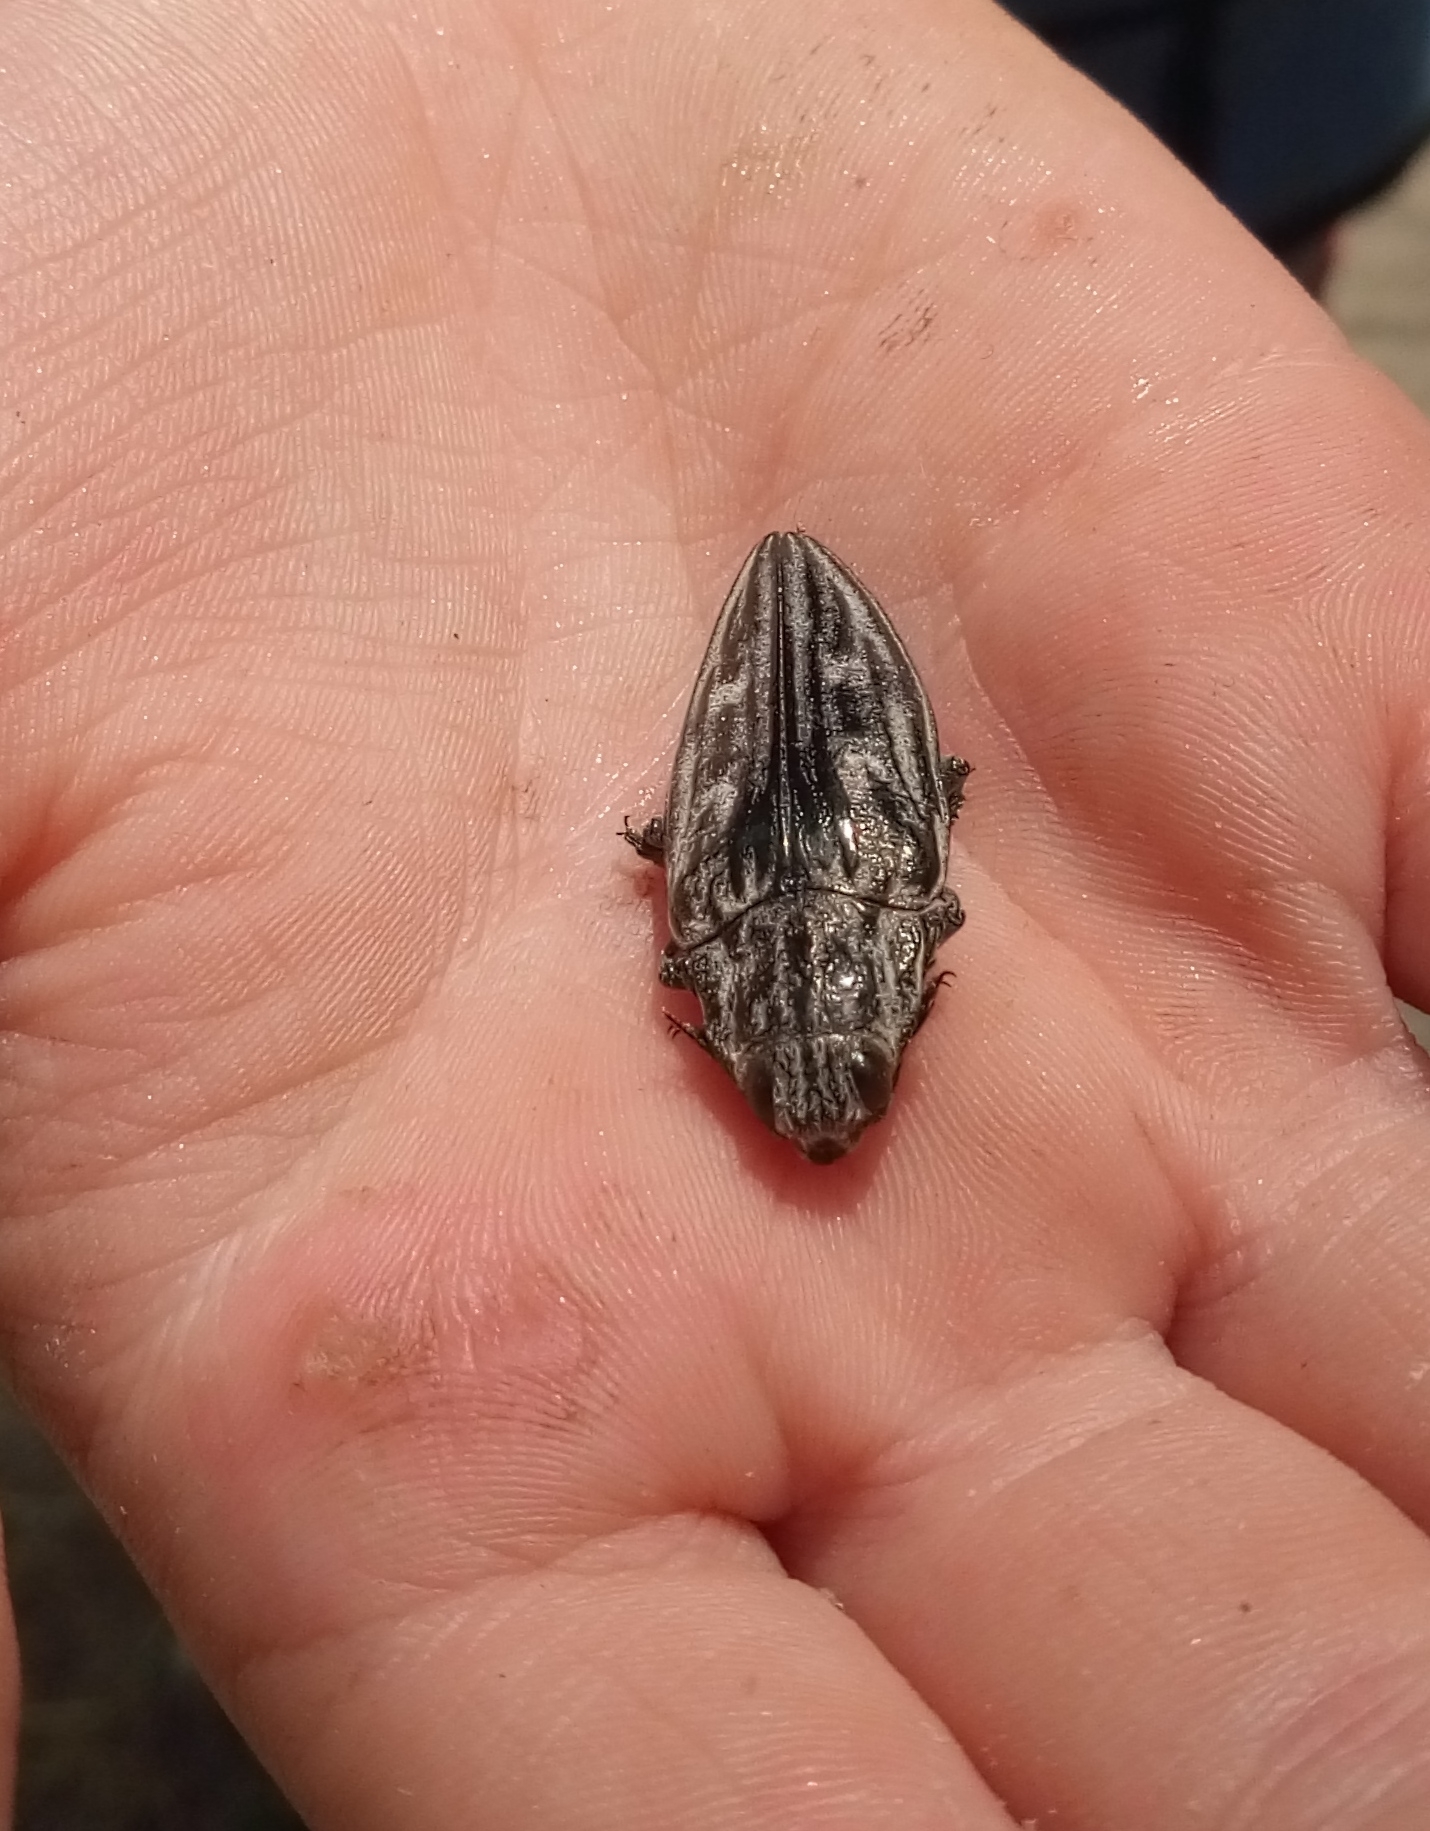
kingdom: Animalia
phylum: Arthropoda
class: Insecta
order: Coleoptera
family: Buprestidae
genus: Chalcophora
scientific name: Chalcophora mariana
